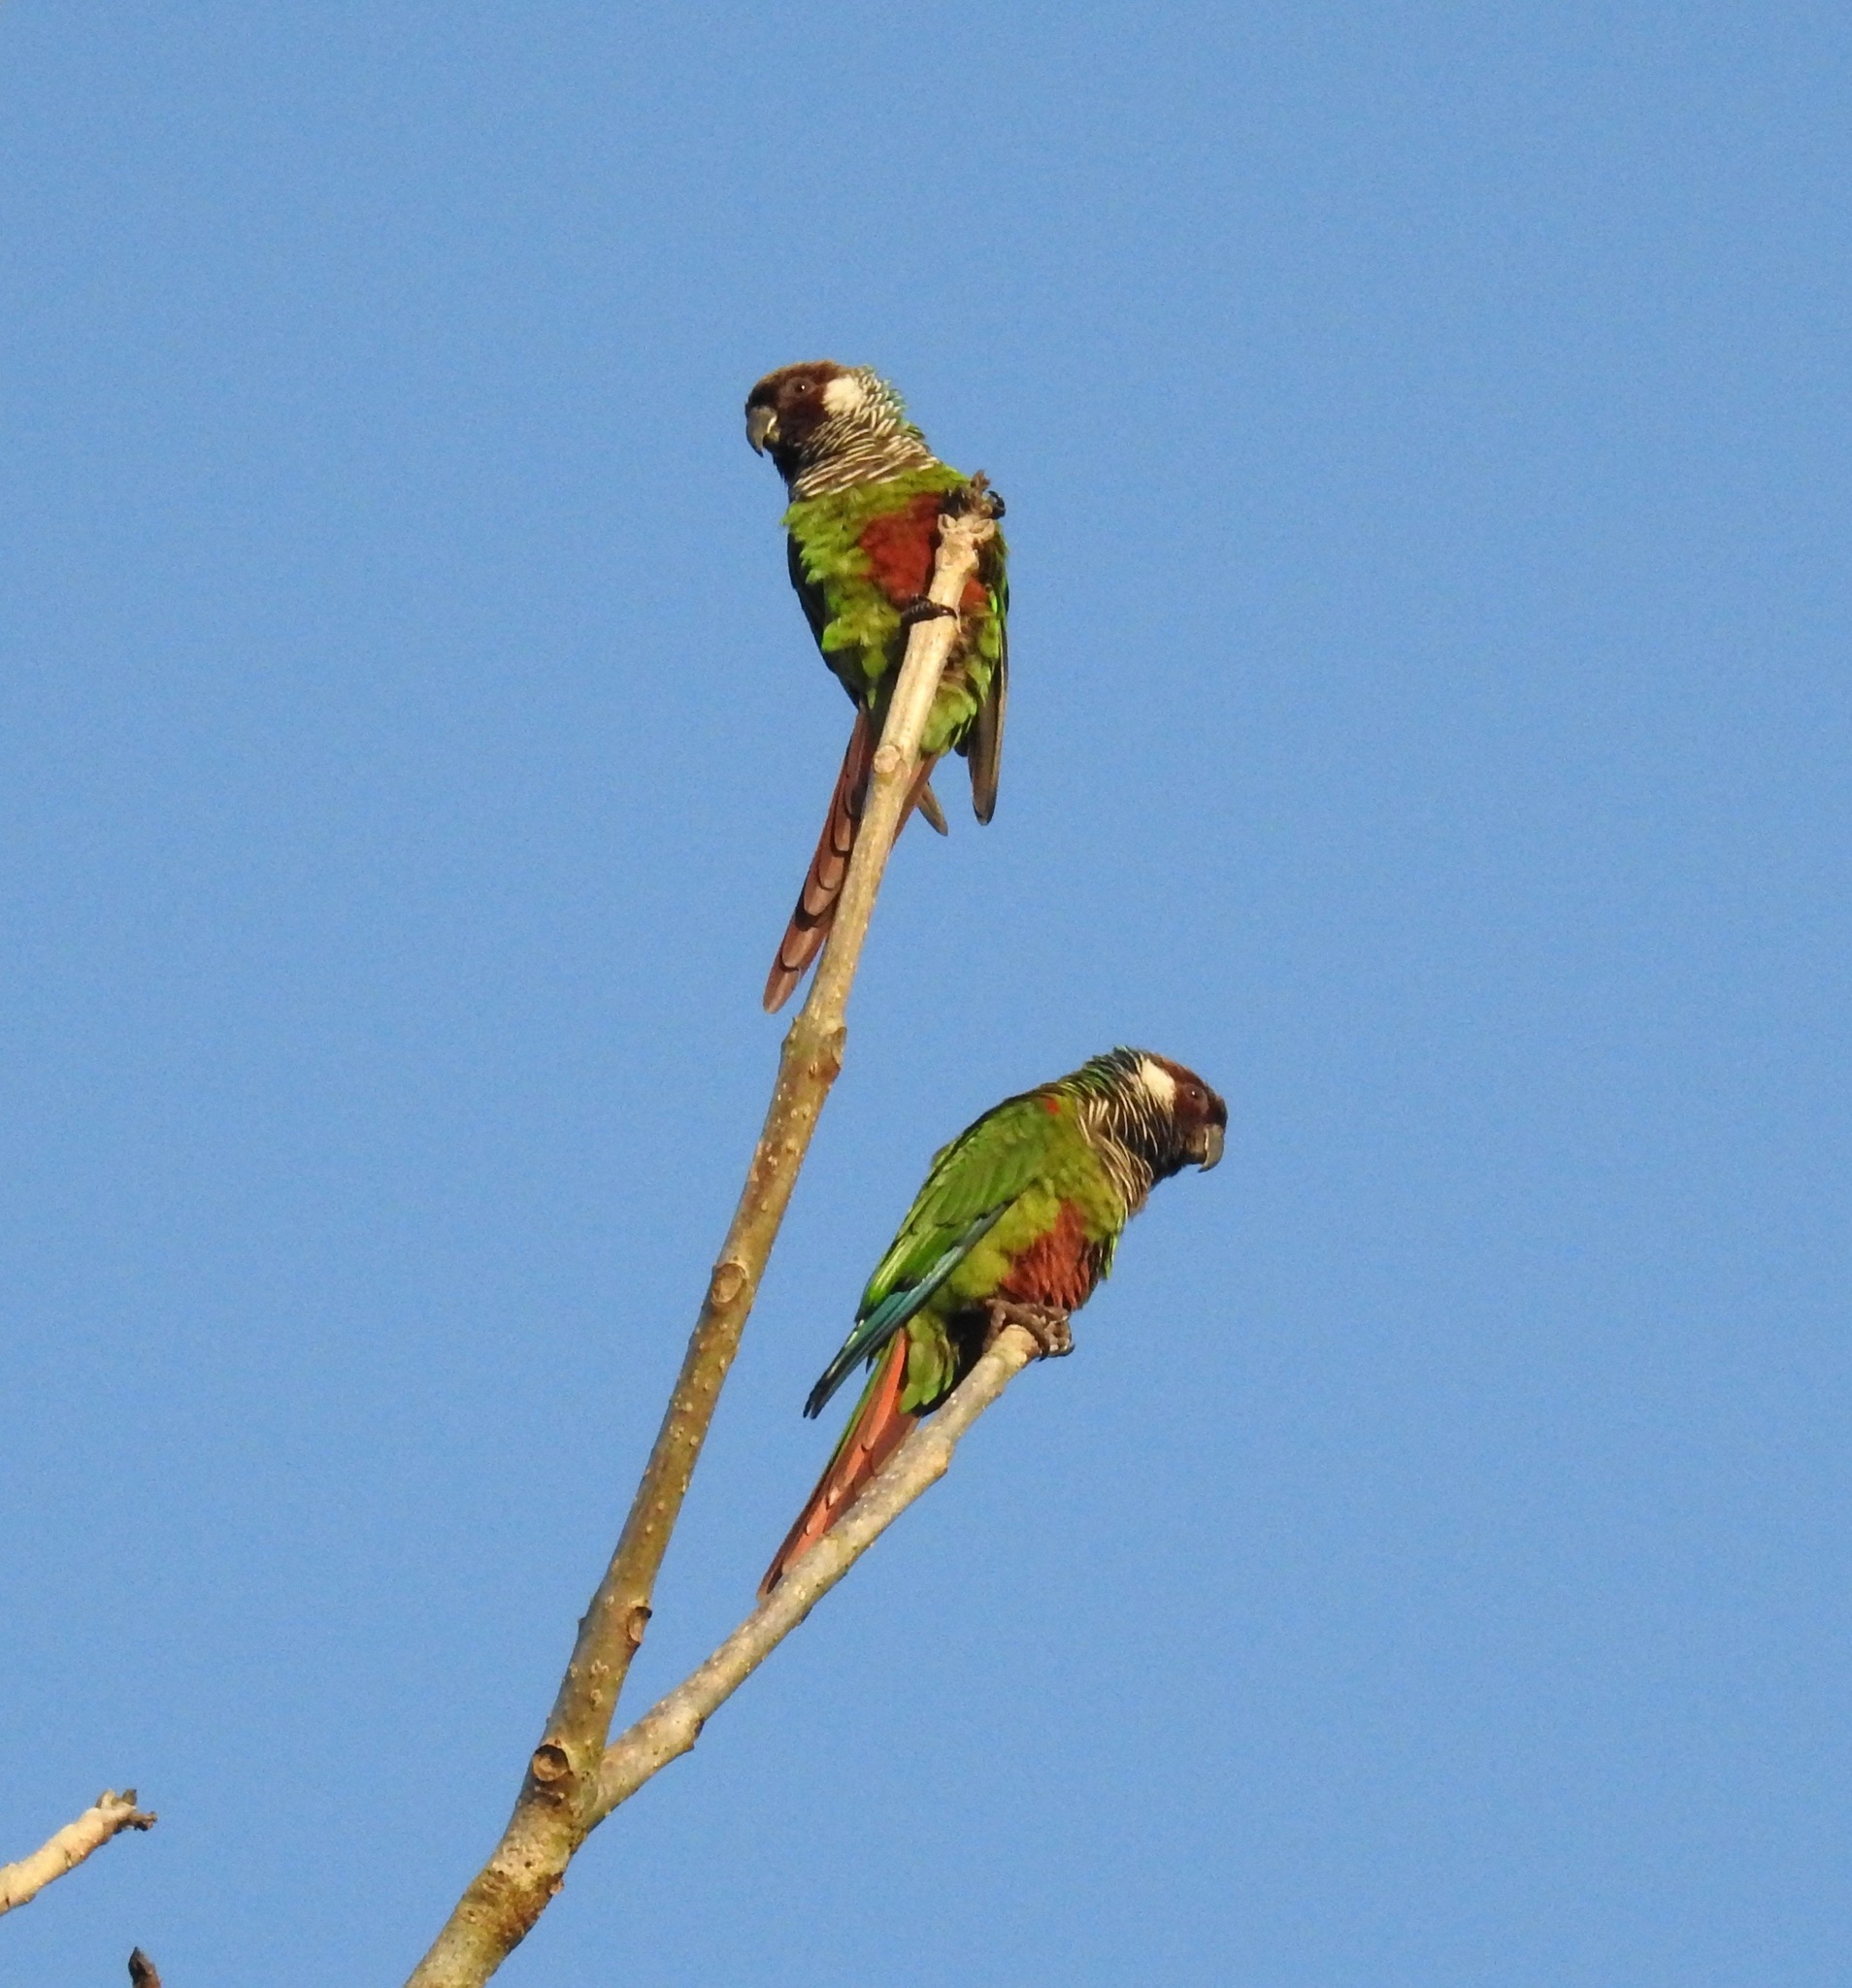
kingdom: Animalia
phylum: Chordata
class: Aves
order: Psittaciformes
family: Psittacidae
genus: Pyrrhura
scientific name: Pyrrhura griseipectus
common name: Gray-breasted parakeet
